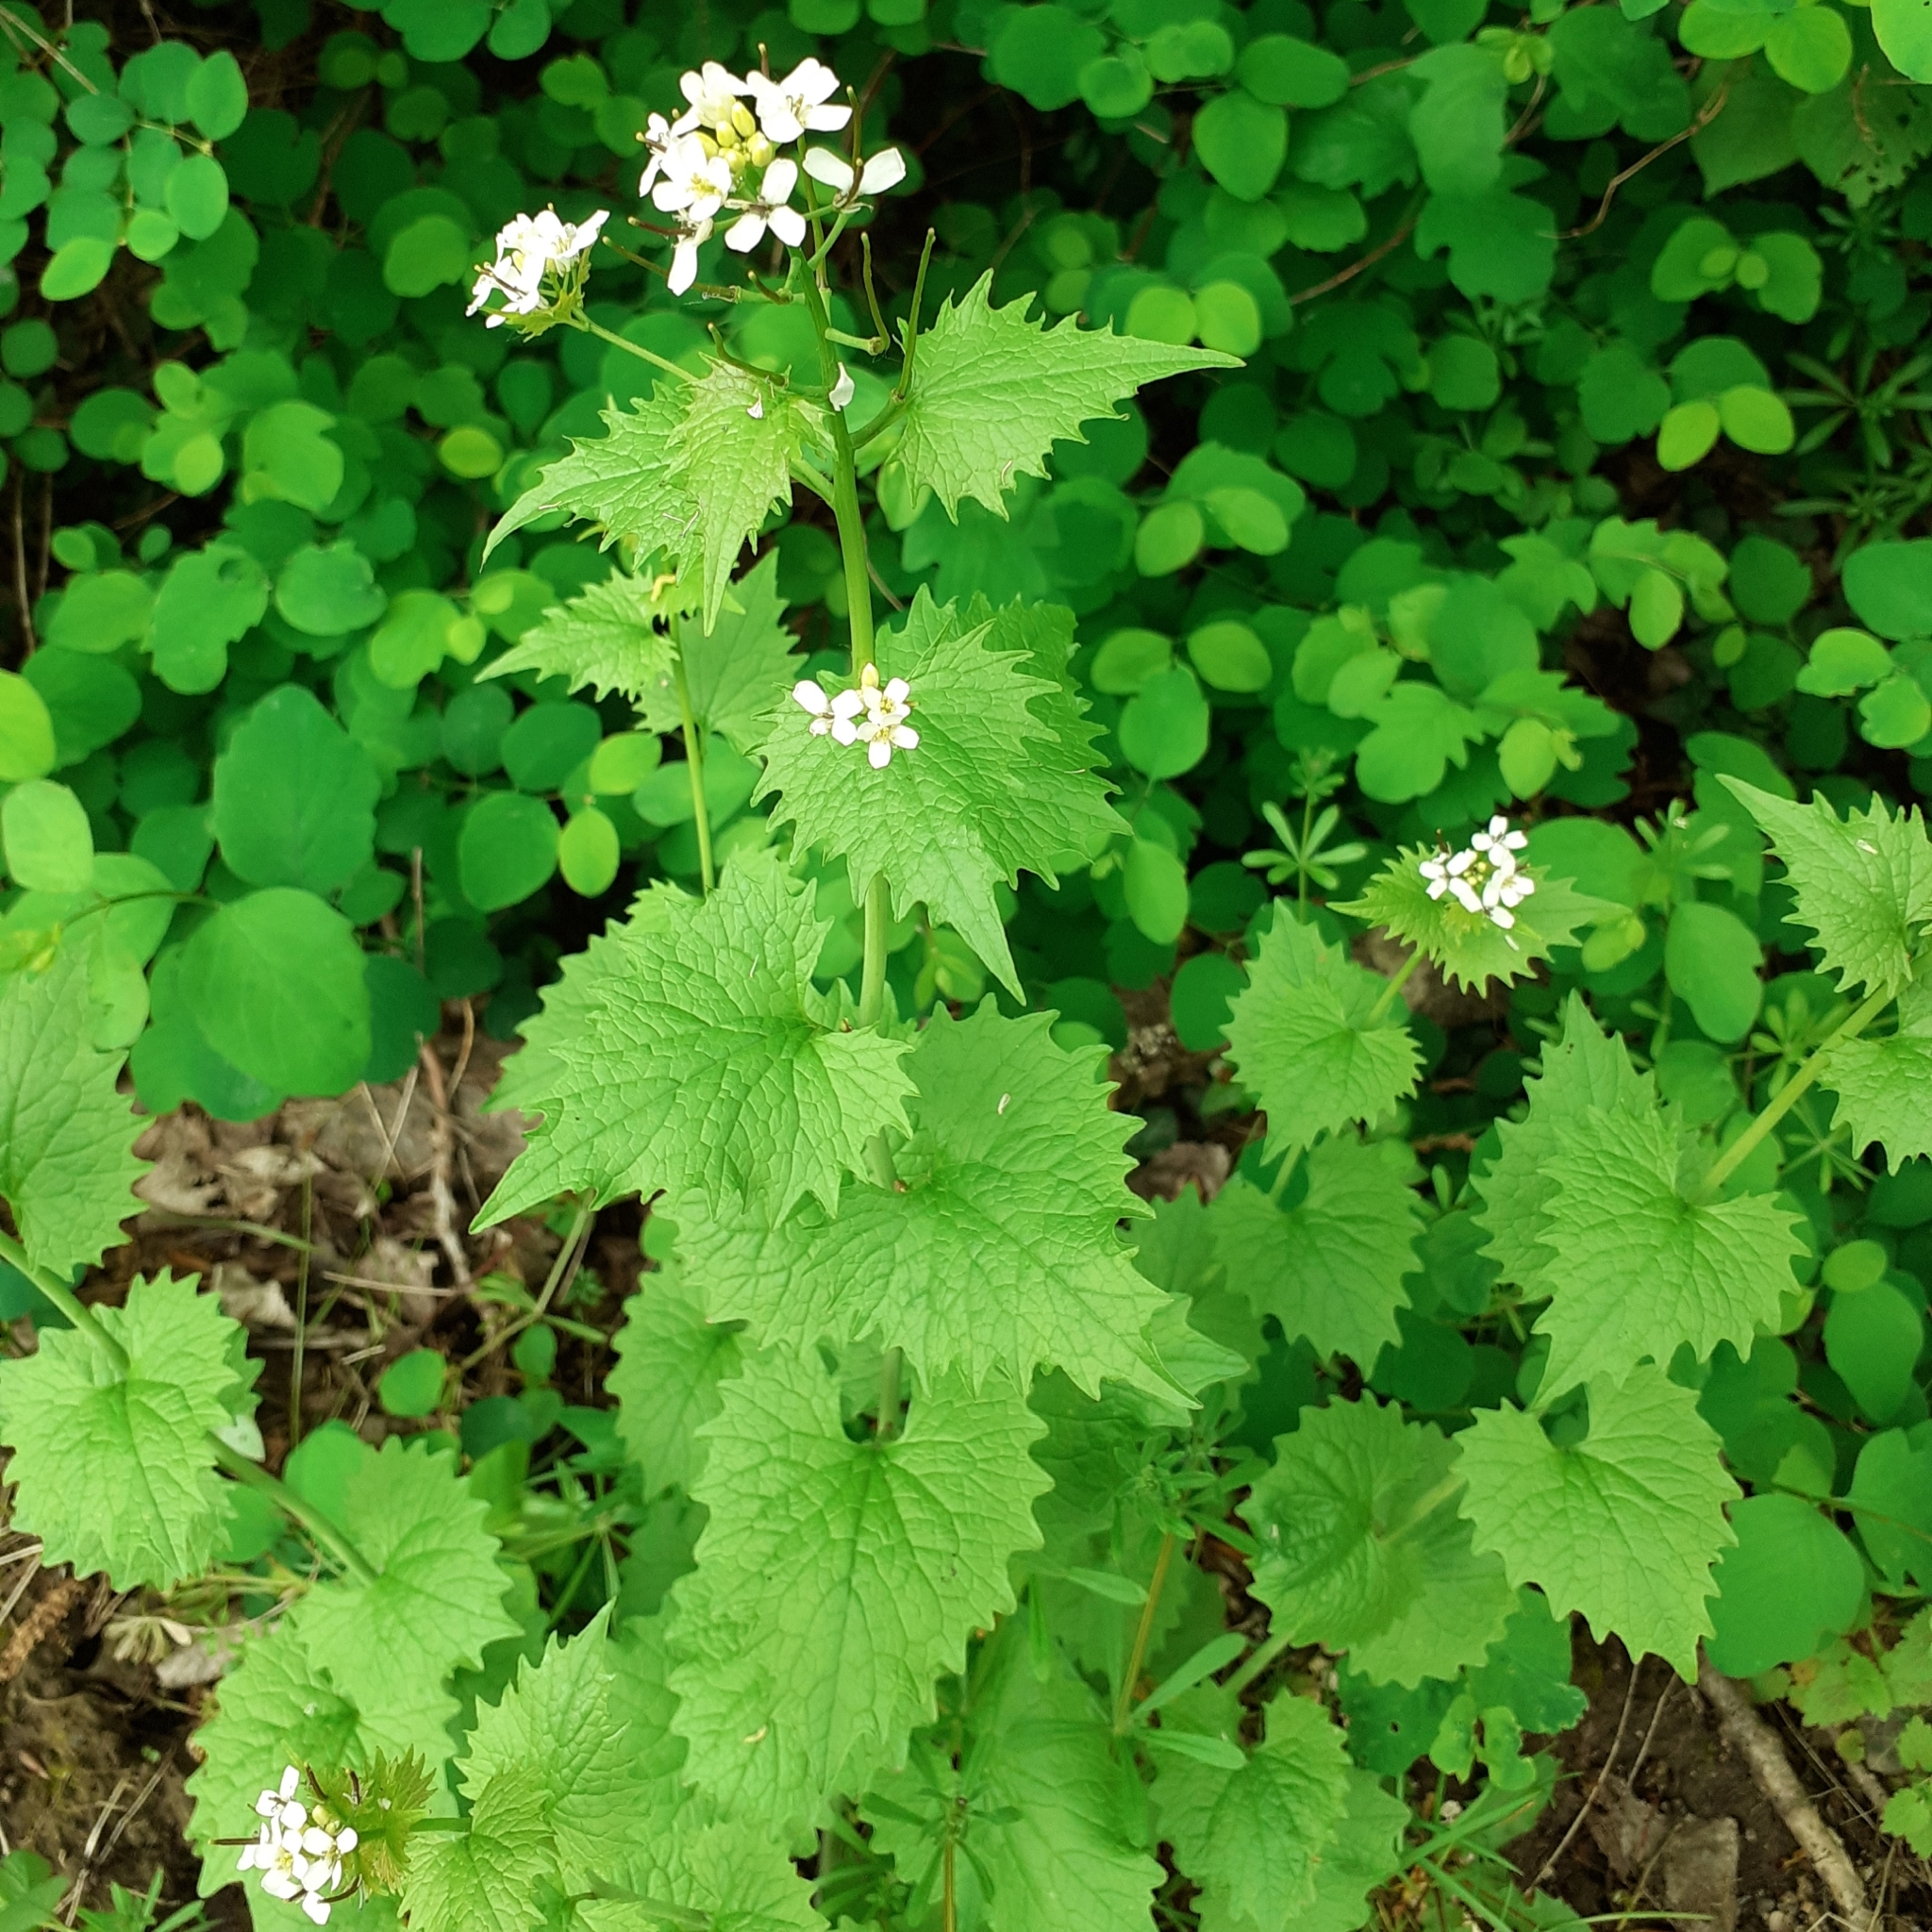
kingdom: Plantae
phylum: Tracheophyta
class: Magnoliopsida
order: Brassicales
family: Brassicaceae
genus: Alliaria
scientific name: Alliaria petiolata
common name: Garlic mustard
